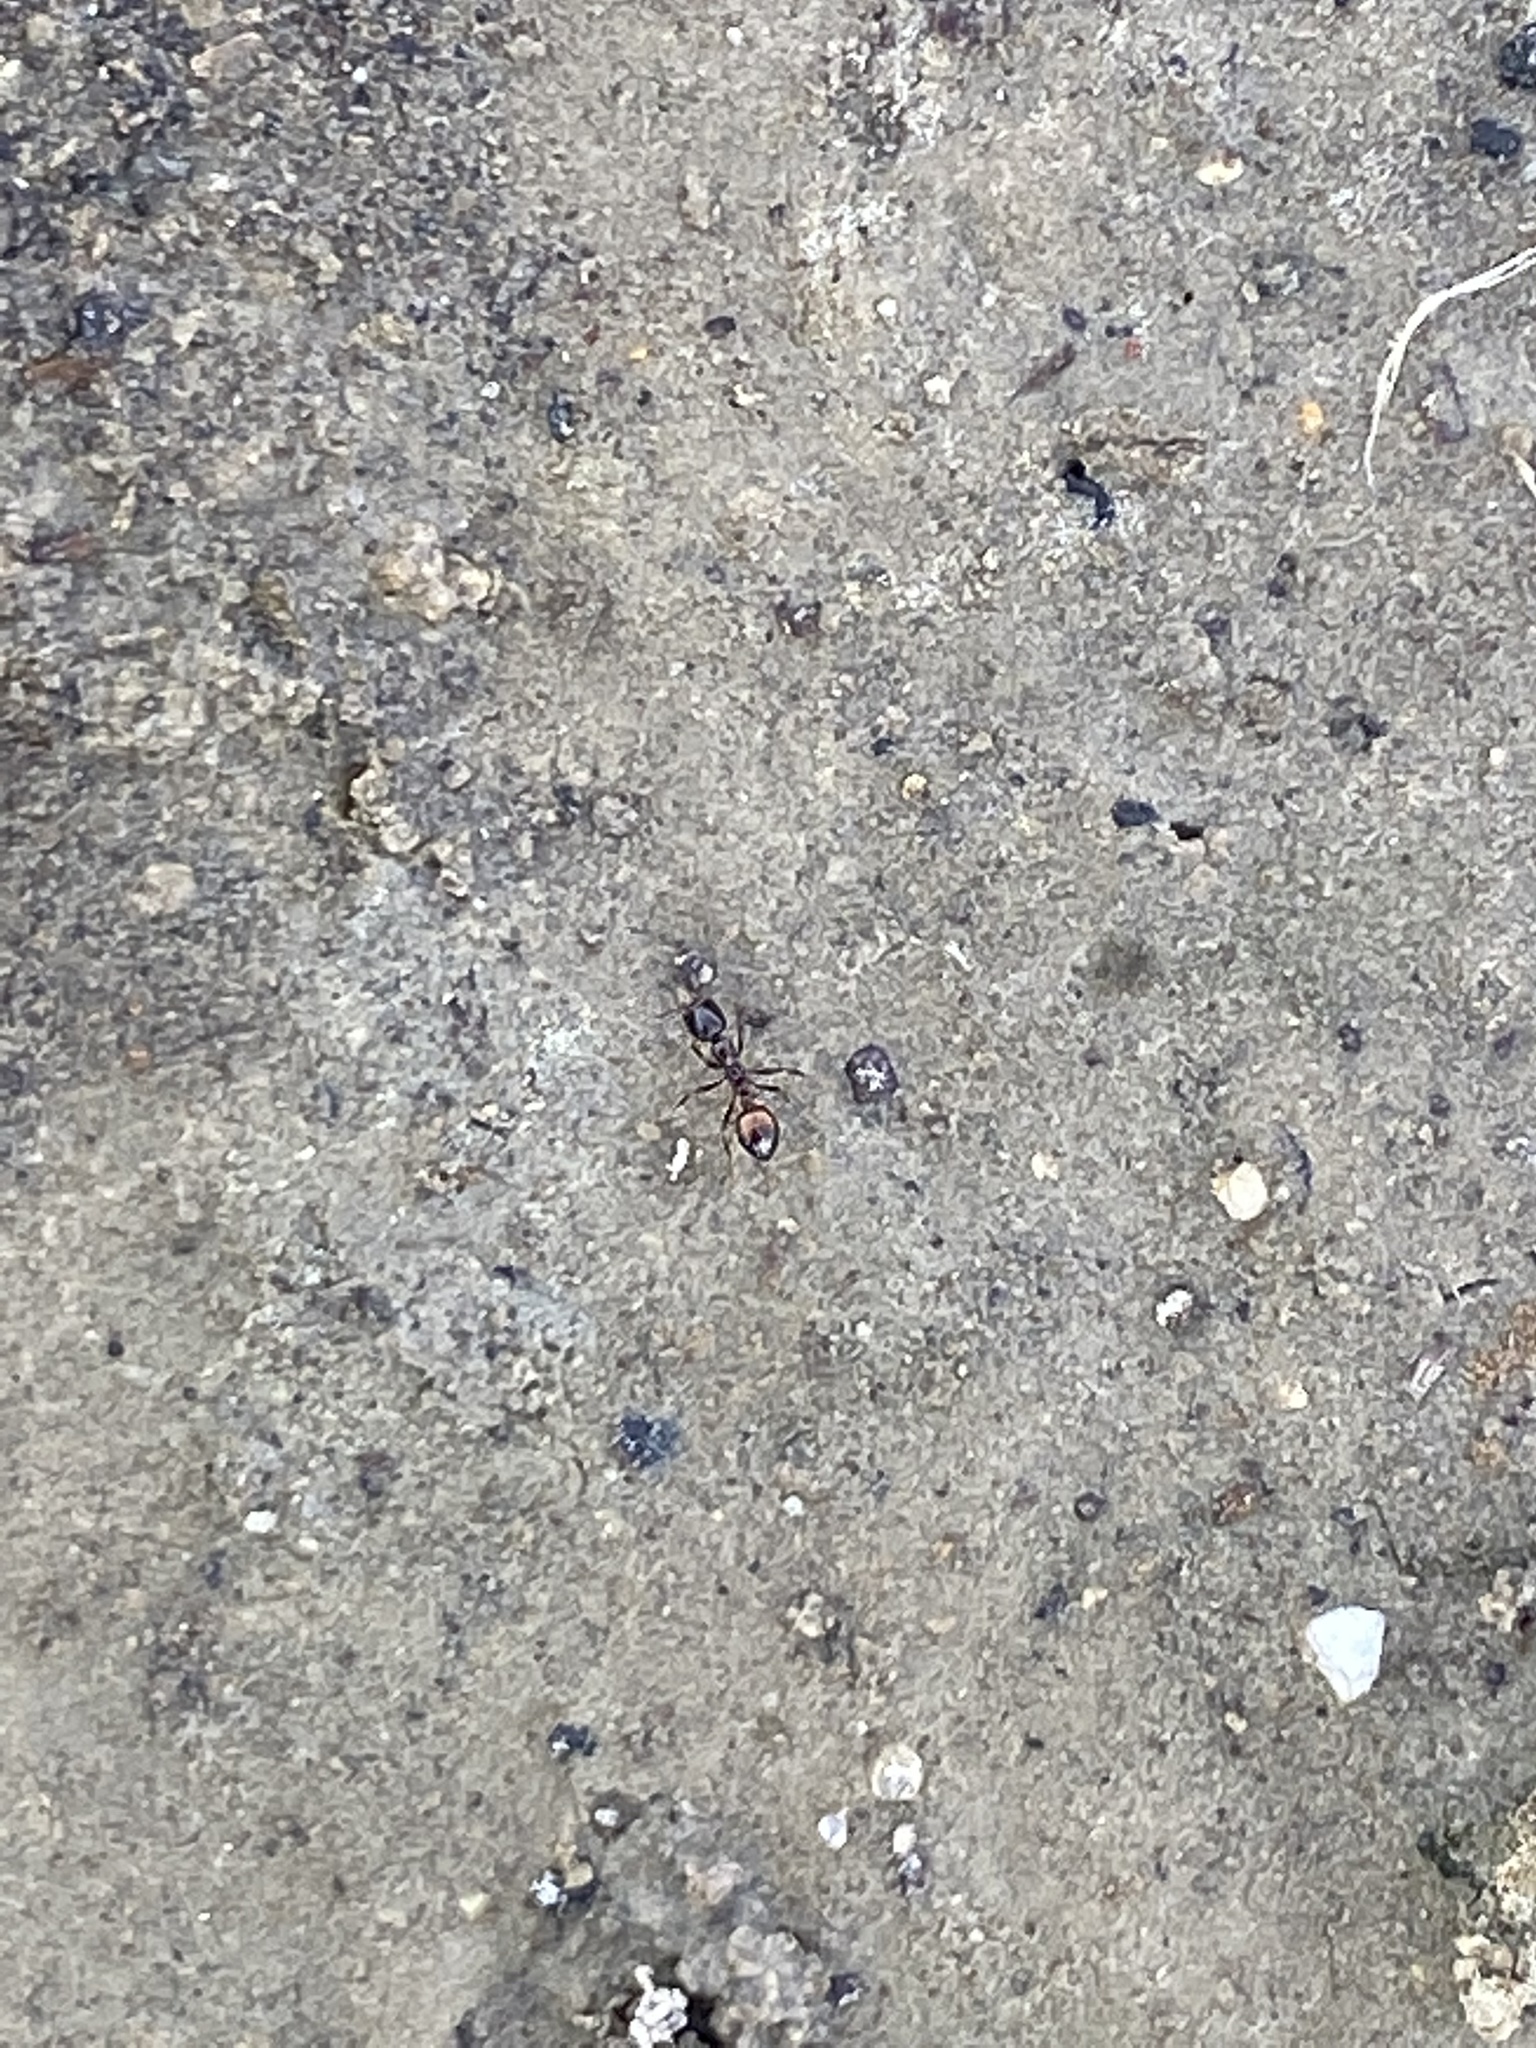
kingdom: Animalia
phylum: Arthropoda
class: Insecta
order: Hymenoptera
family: Formicidae
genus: Solenopsis
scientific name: Solenopsis
